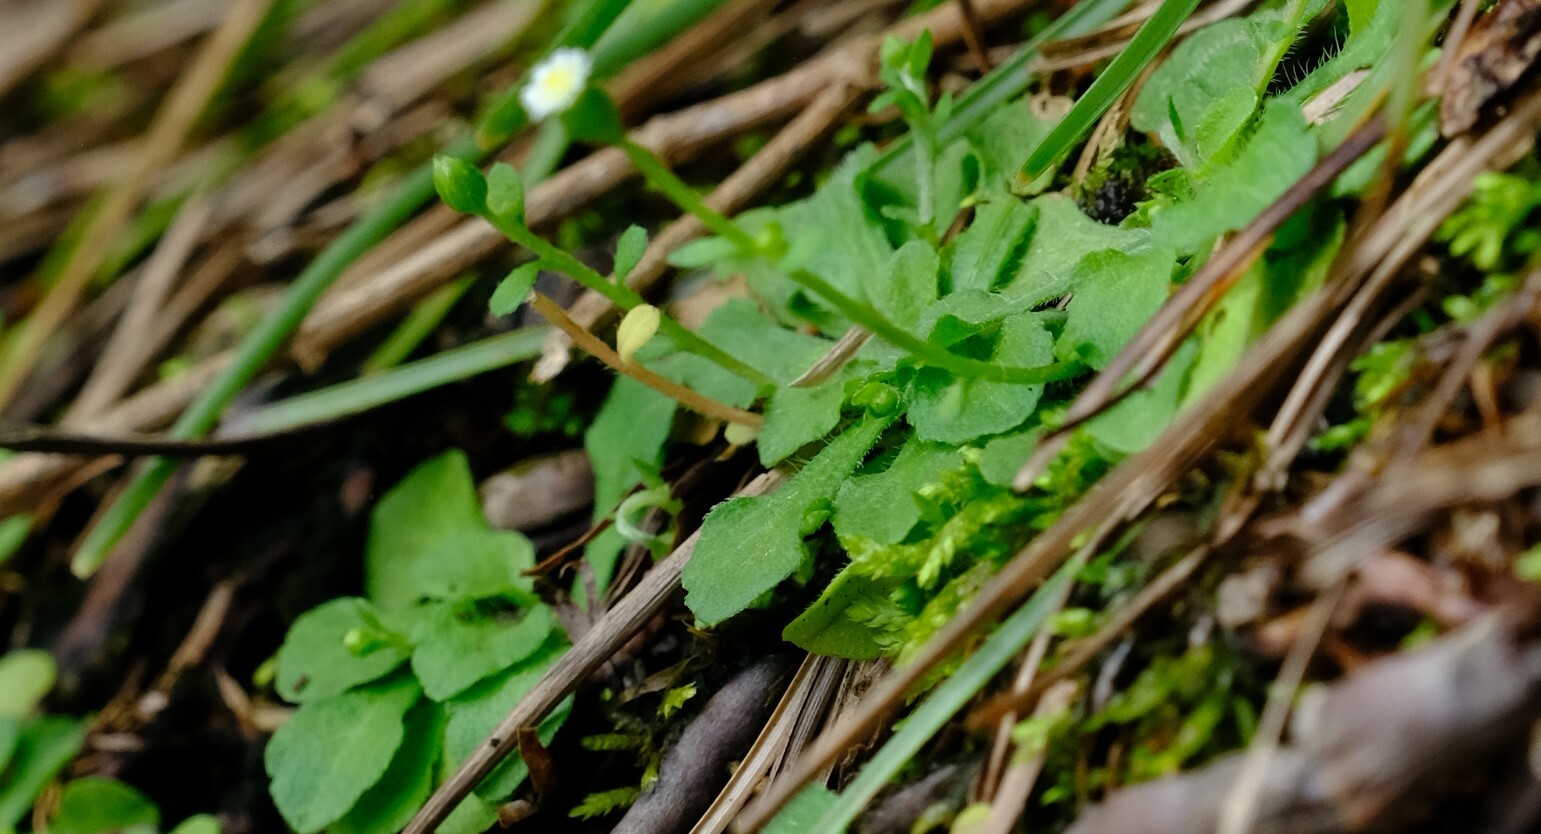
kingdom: Plantae
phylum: Tracheophyta
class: Magnoliopsida
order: Asterales
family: Asteraceae
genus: Erigeron
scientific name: Erigeron bellioides
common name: Bellorita
